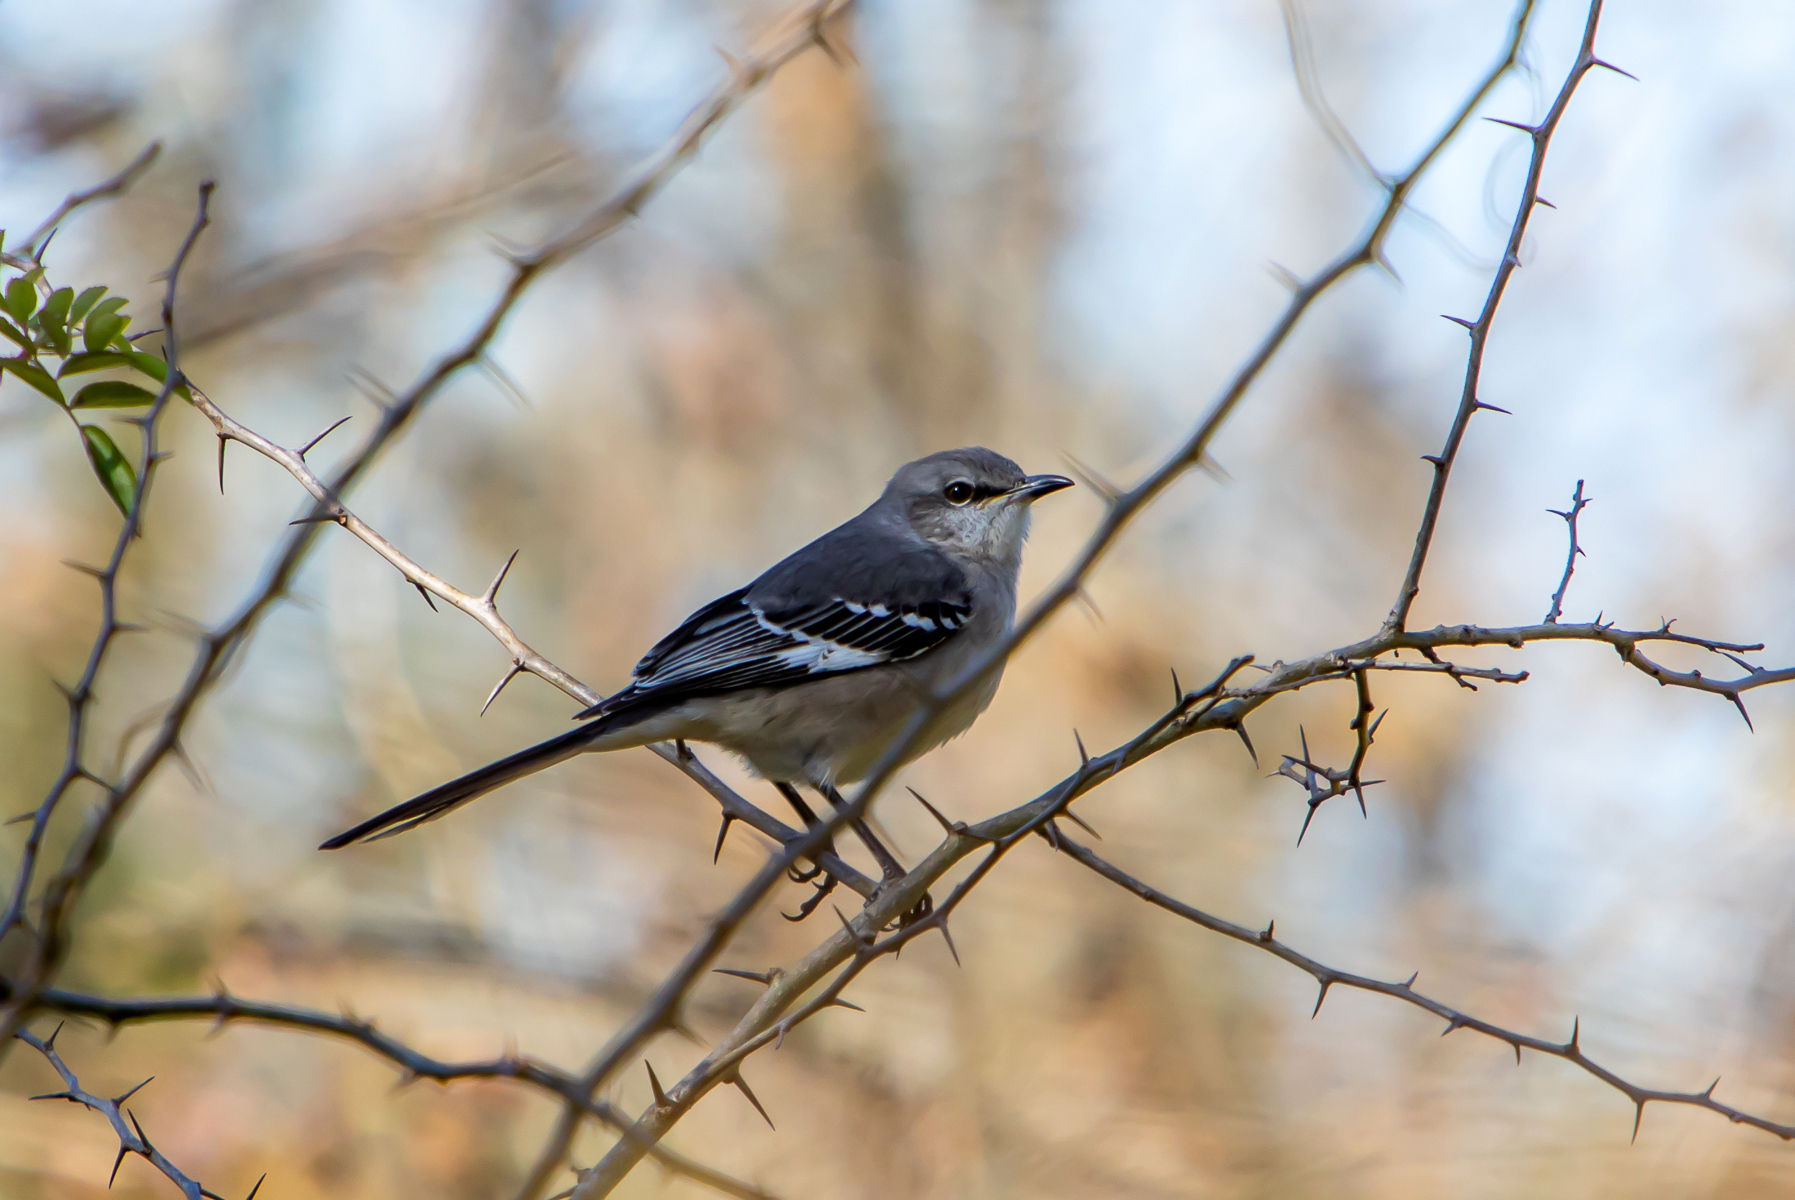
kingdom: Animalia
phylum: Chordata
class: Aves
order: Passeriformes
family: Mimidae
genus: Mimus
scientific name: Mimus polyglottos
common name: Northern mockingbird
